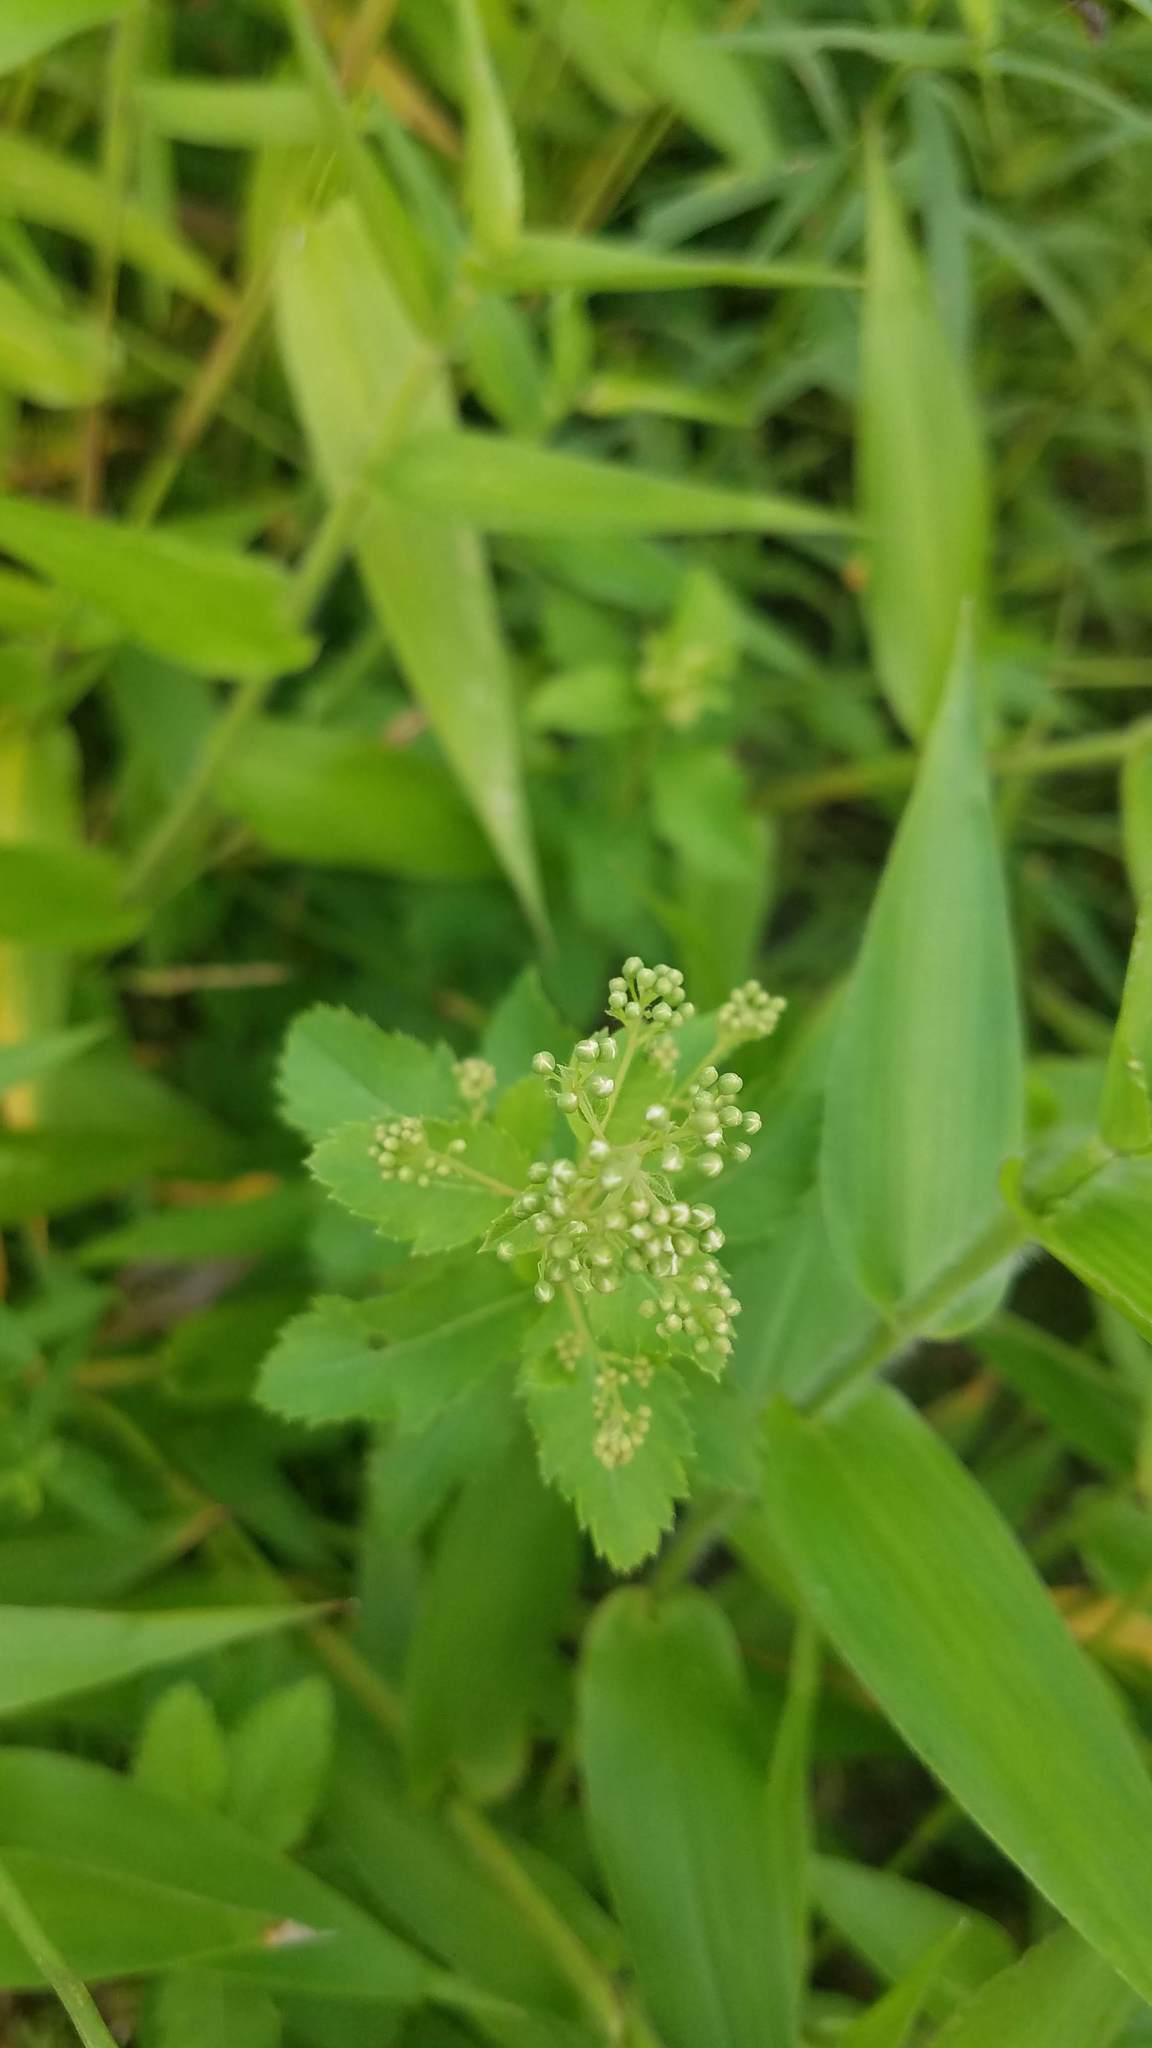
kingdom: Plantae
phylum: Tracheophyta
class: Magnoliopsida
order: Rosales
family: Rosaceae
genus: Spiraea
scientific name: Spiraea alba
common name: Pale bridewort
